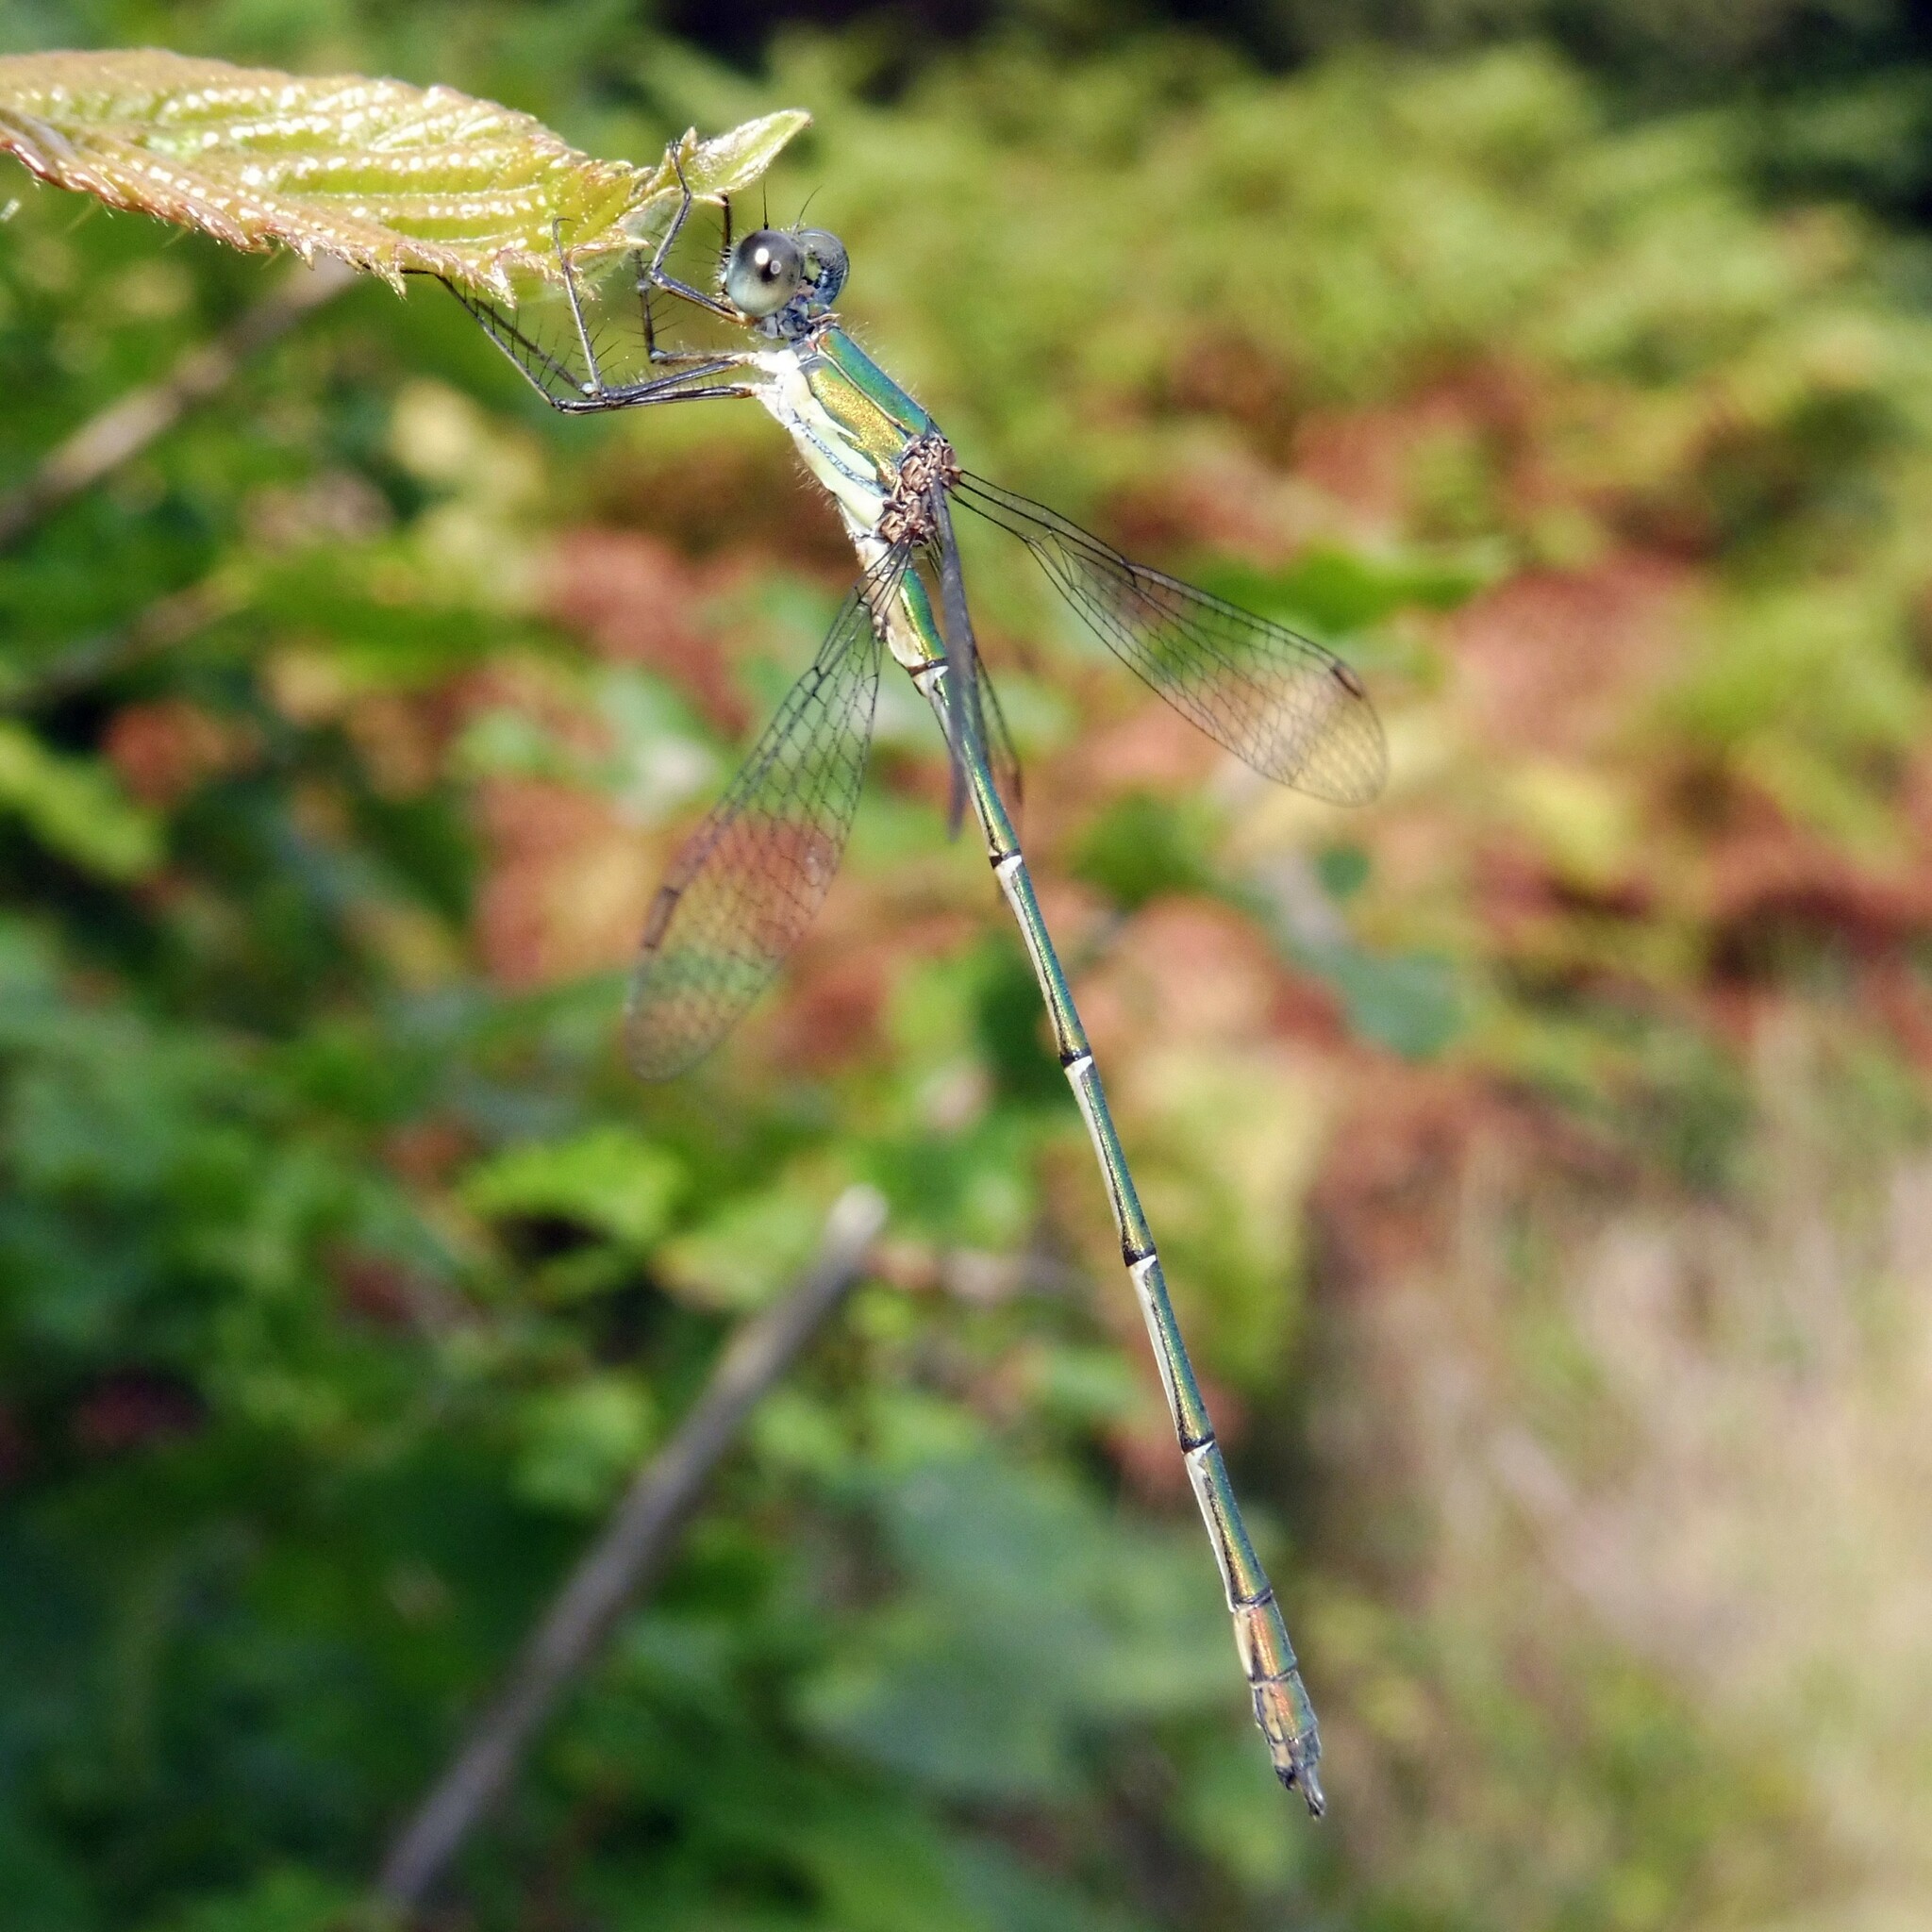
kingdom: Animalia
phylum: Arthropoda
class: Insecta
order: Odonata
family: Lestidae
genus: Chalcolestes
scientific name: Chalcolestes viridis
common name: Green emerald damselfly
